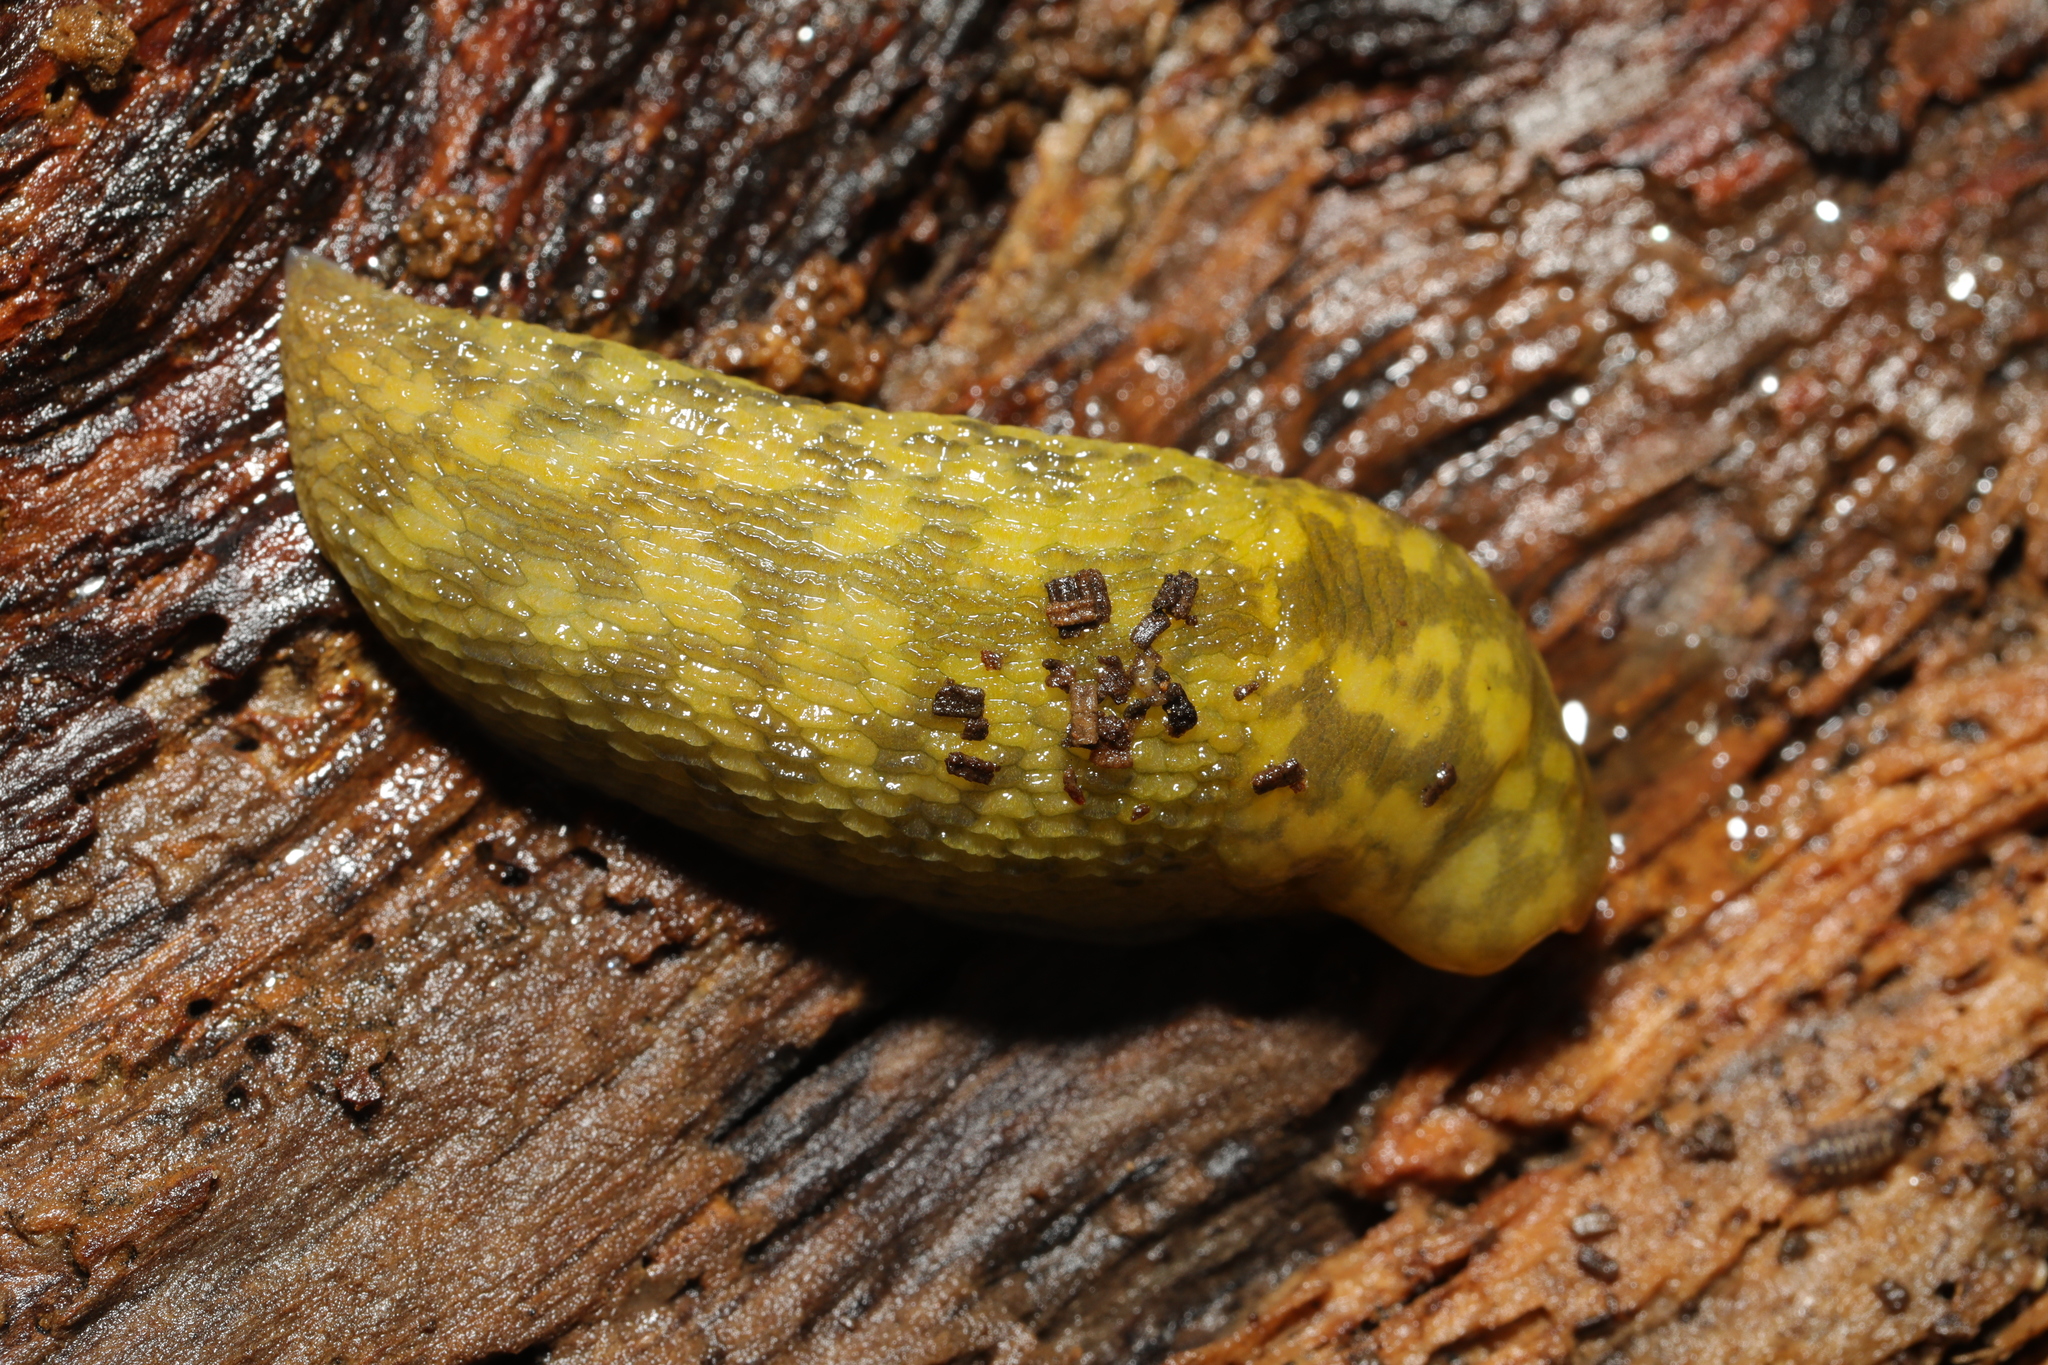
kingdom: Animalia
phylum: Mollusca
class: Gastropoda
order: Stylommatophora
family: Limacidae
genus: Limacus
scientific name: Limacus maculatus
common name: Irish yellow slug
